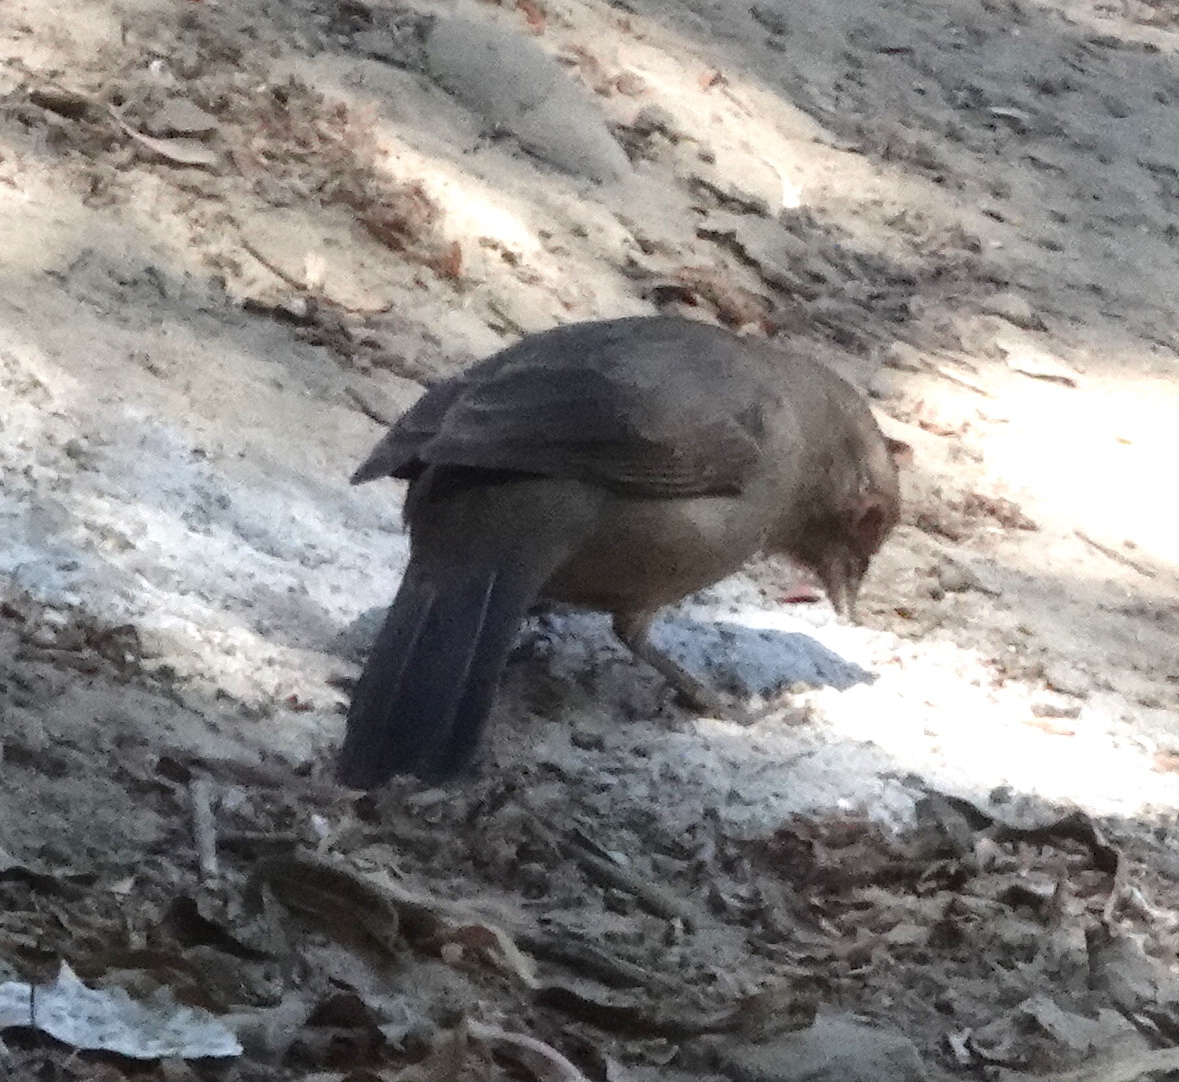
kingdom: Animalia
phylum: Chordata
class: Aves
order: Passeriformes
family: Passerellidae
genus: Melozone
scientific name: Melozone crissalis
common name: California towhee
